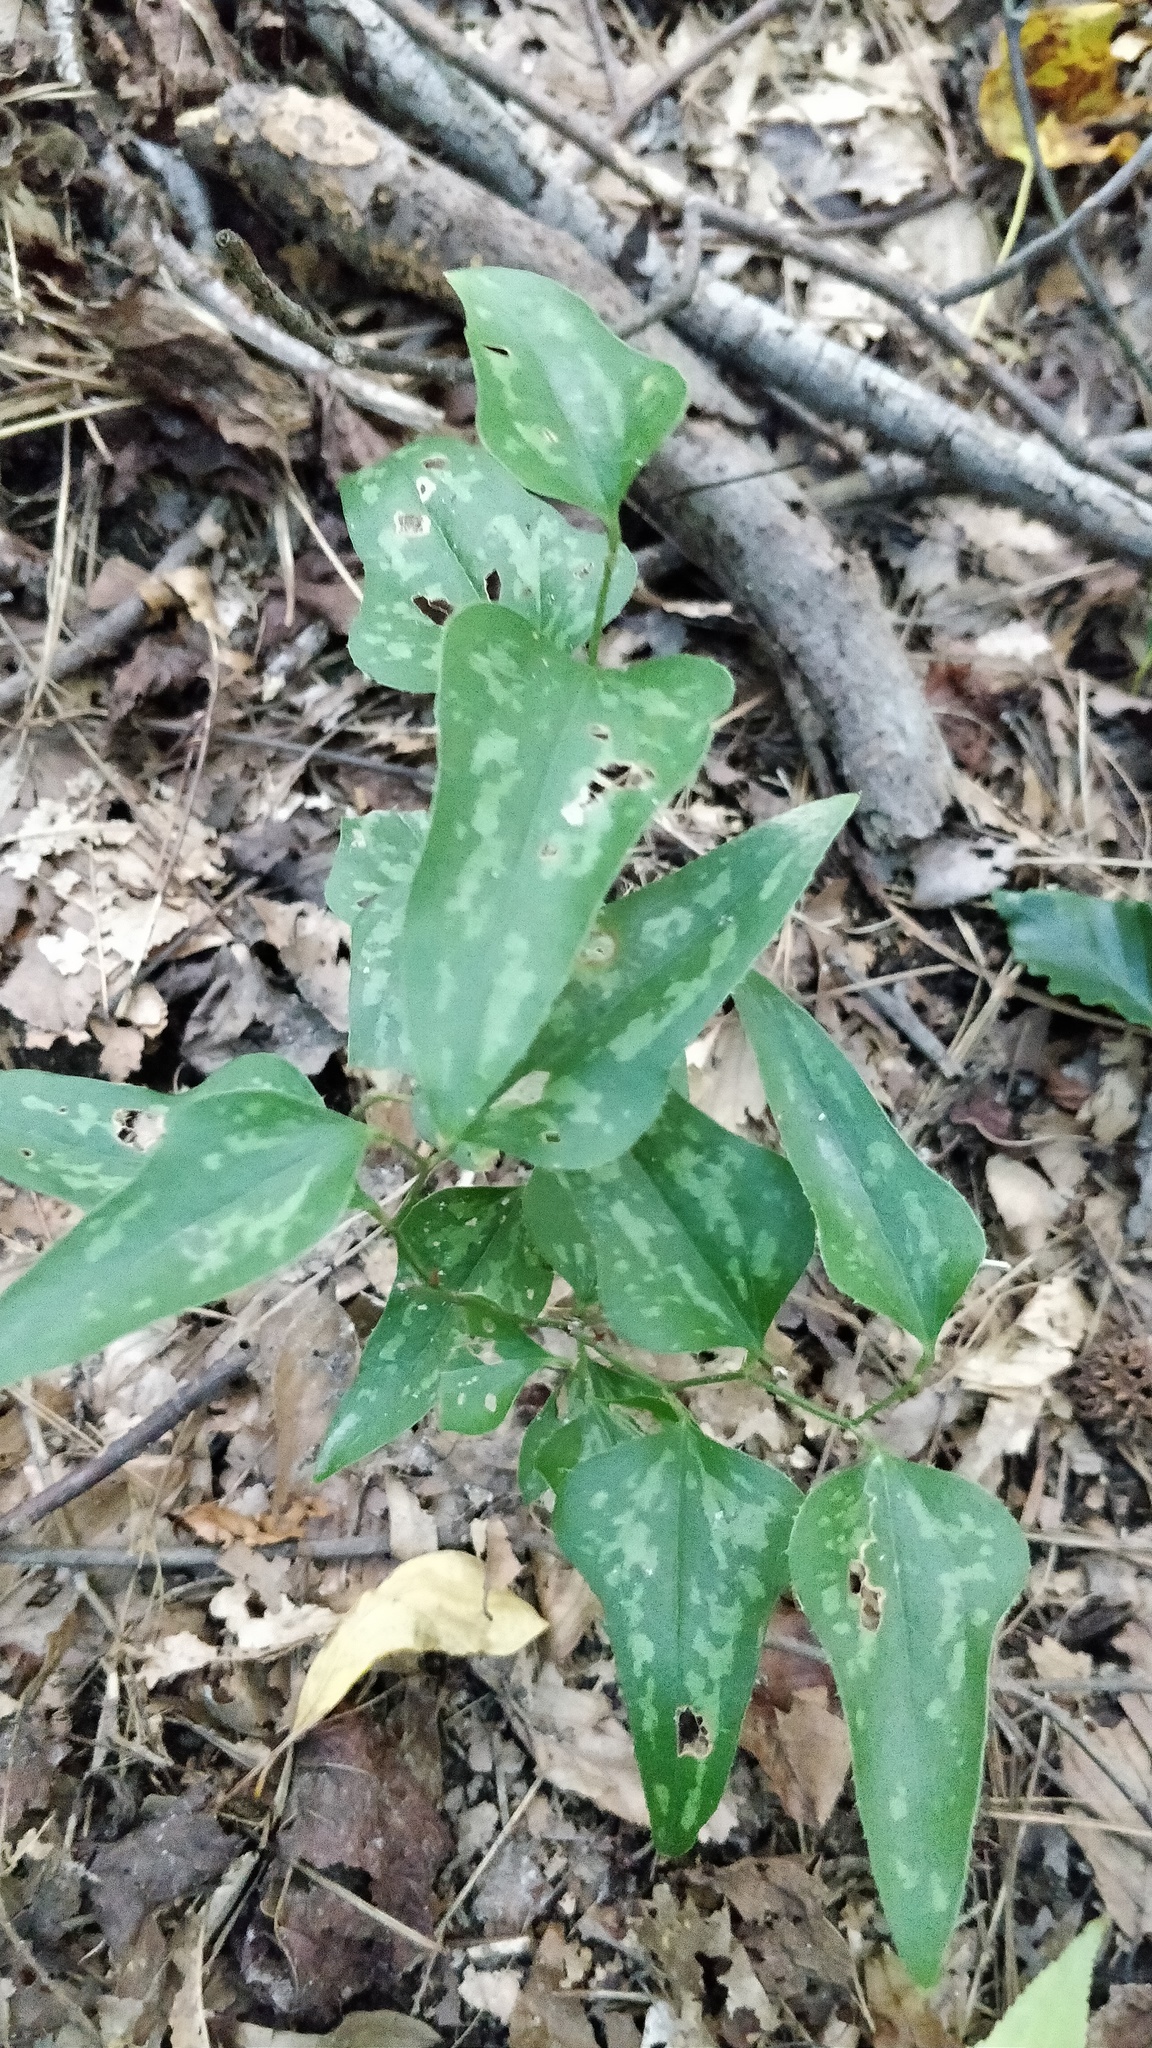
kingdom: Plantae
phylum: Tracheophyta
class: Liliopsida
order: Liliales
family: Smilacaceae
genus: Smilax
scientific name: Smilax bona-nox
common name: Catbrier
